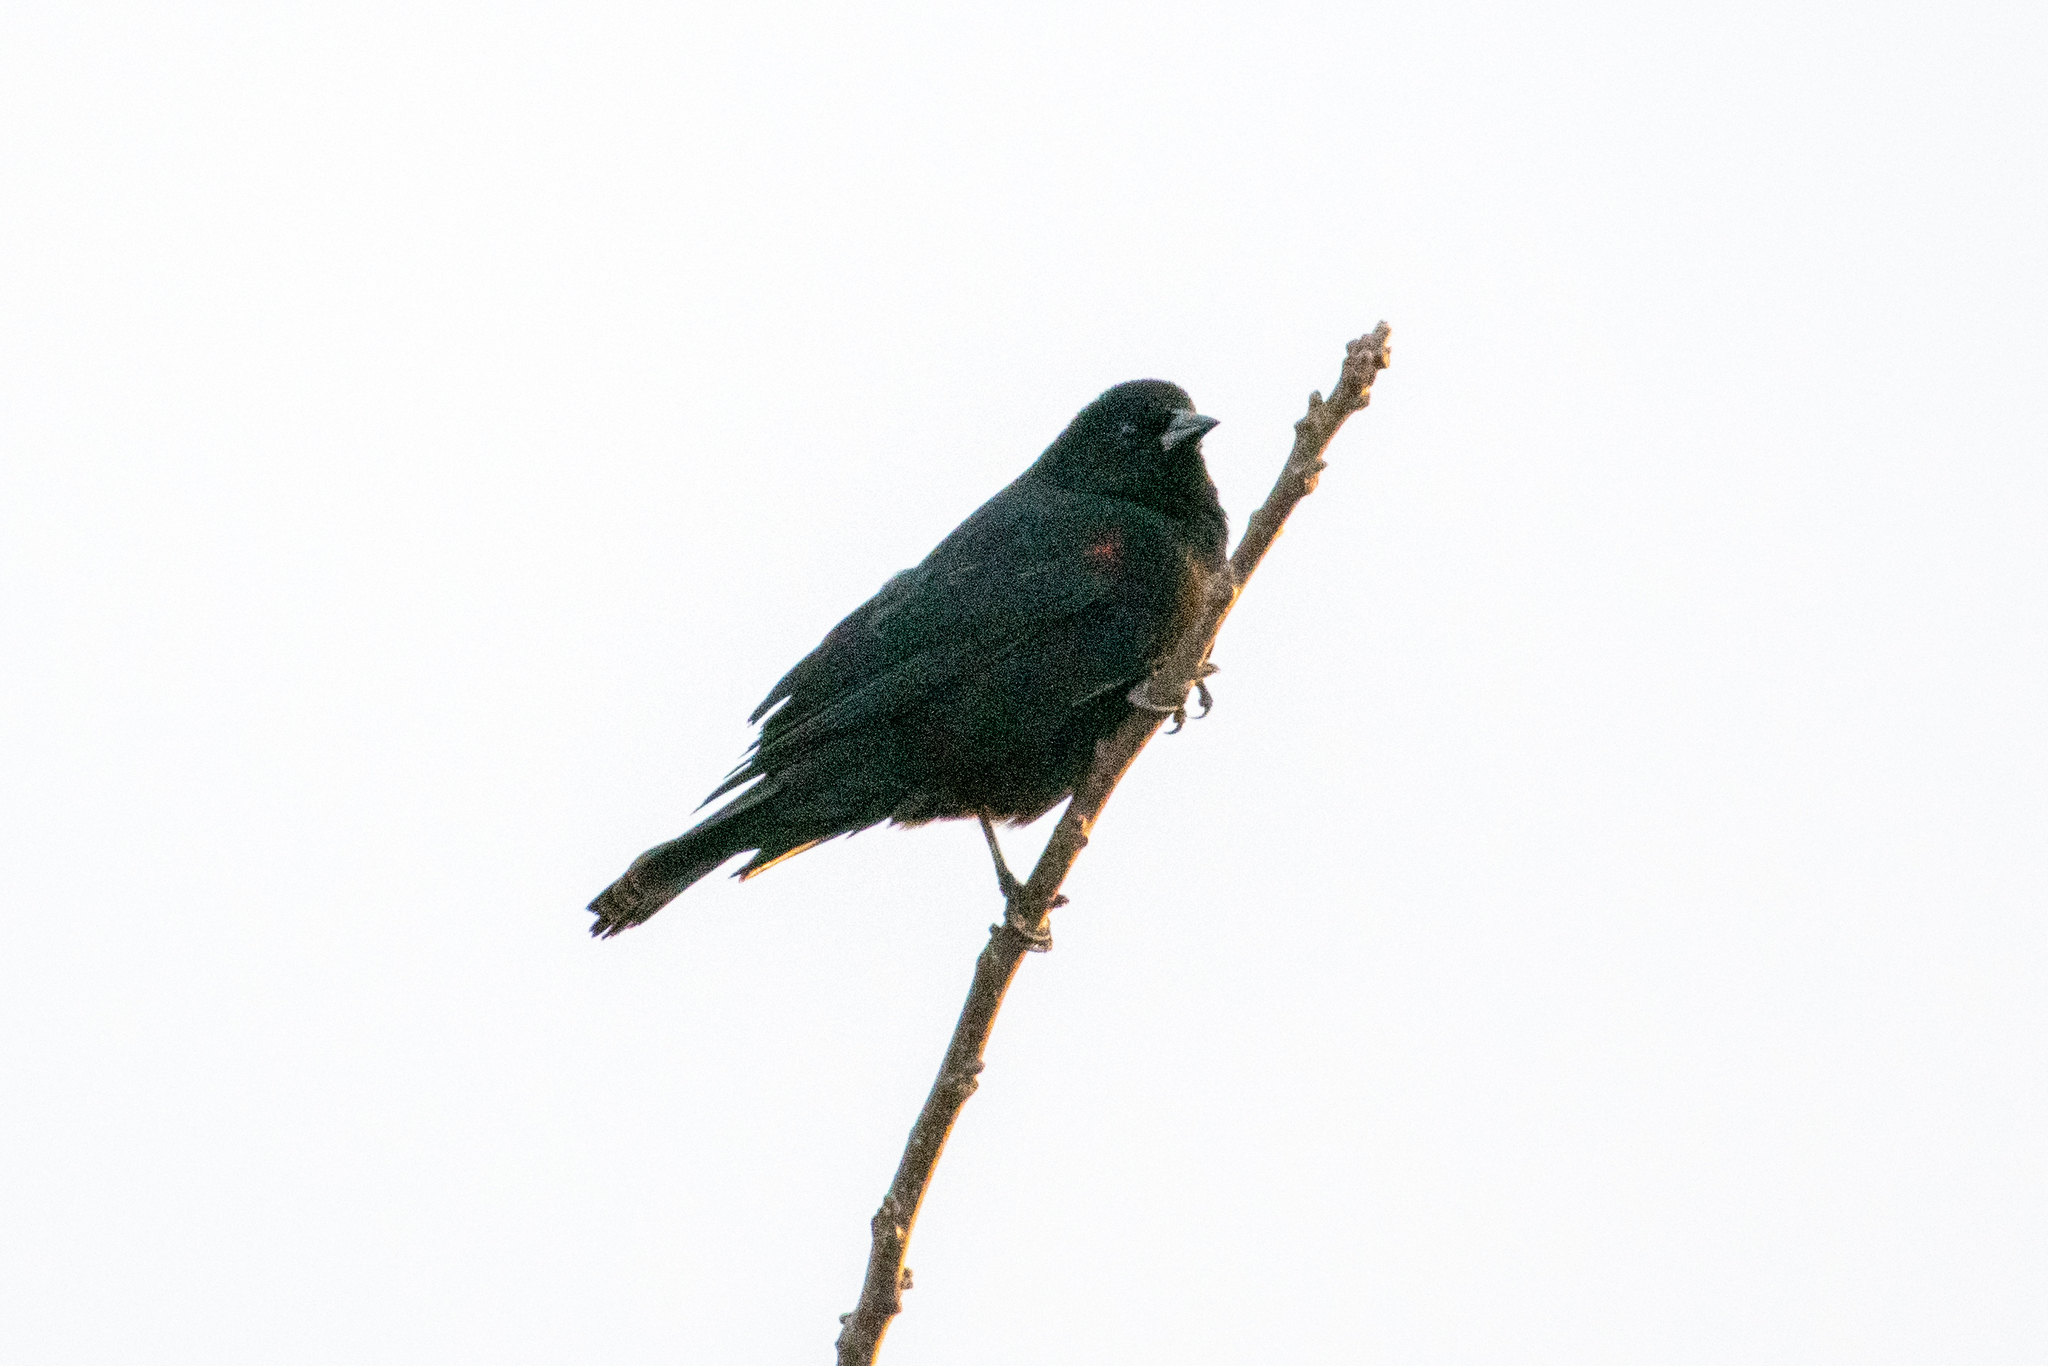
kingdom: Animalia
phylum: Chordata
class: Aves
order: Passeriformes
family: Icteridae
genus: Agelaius
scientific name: Agelaius phoeniceus
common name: Red-winged blackbird
